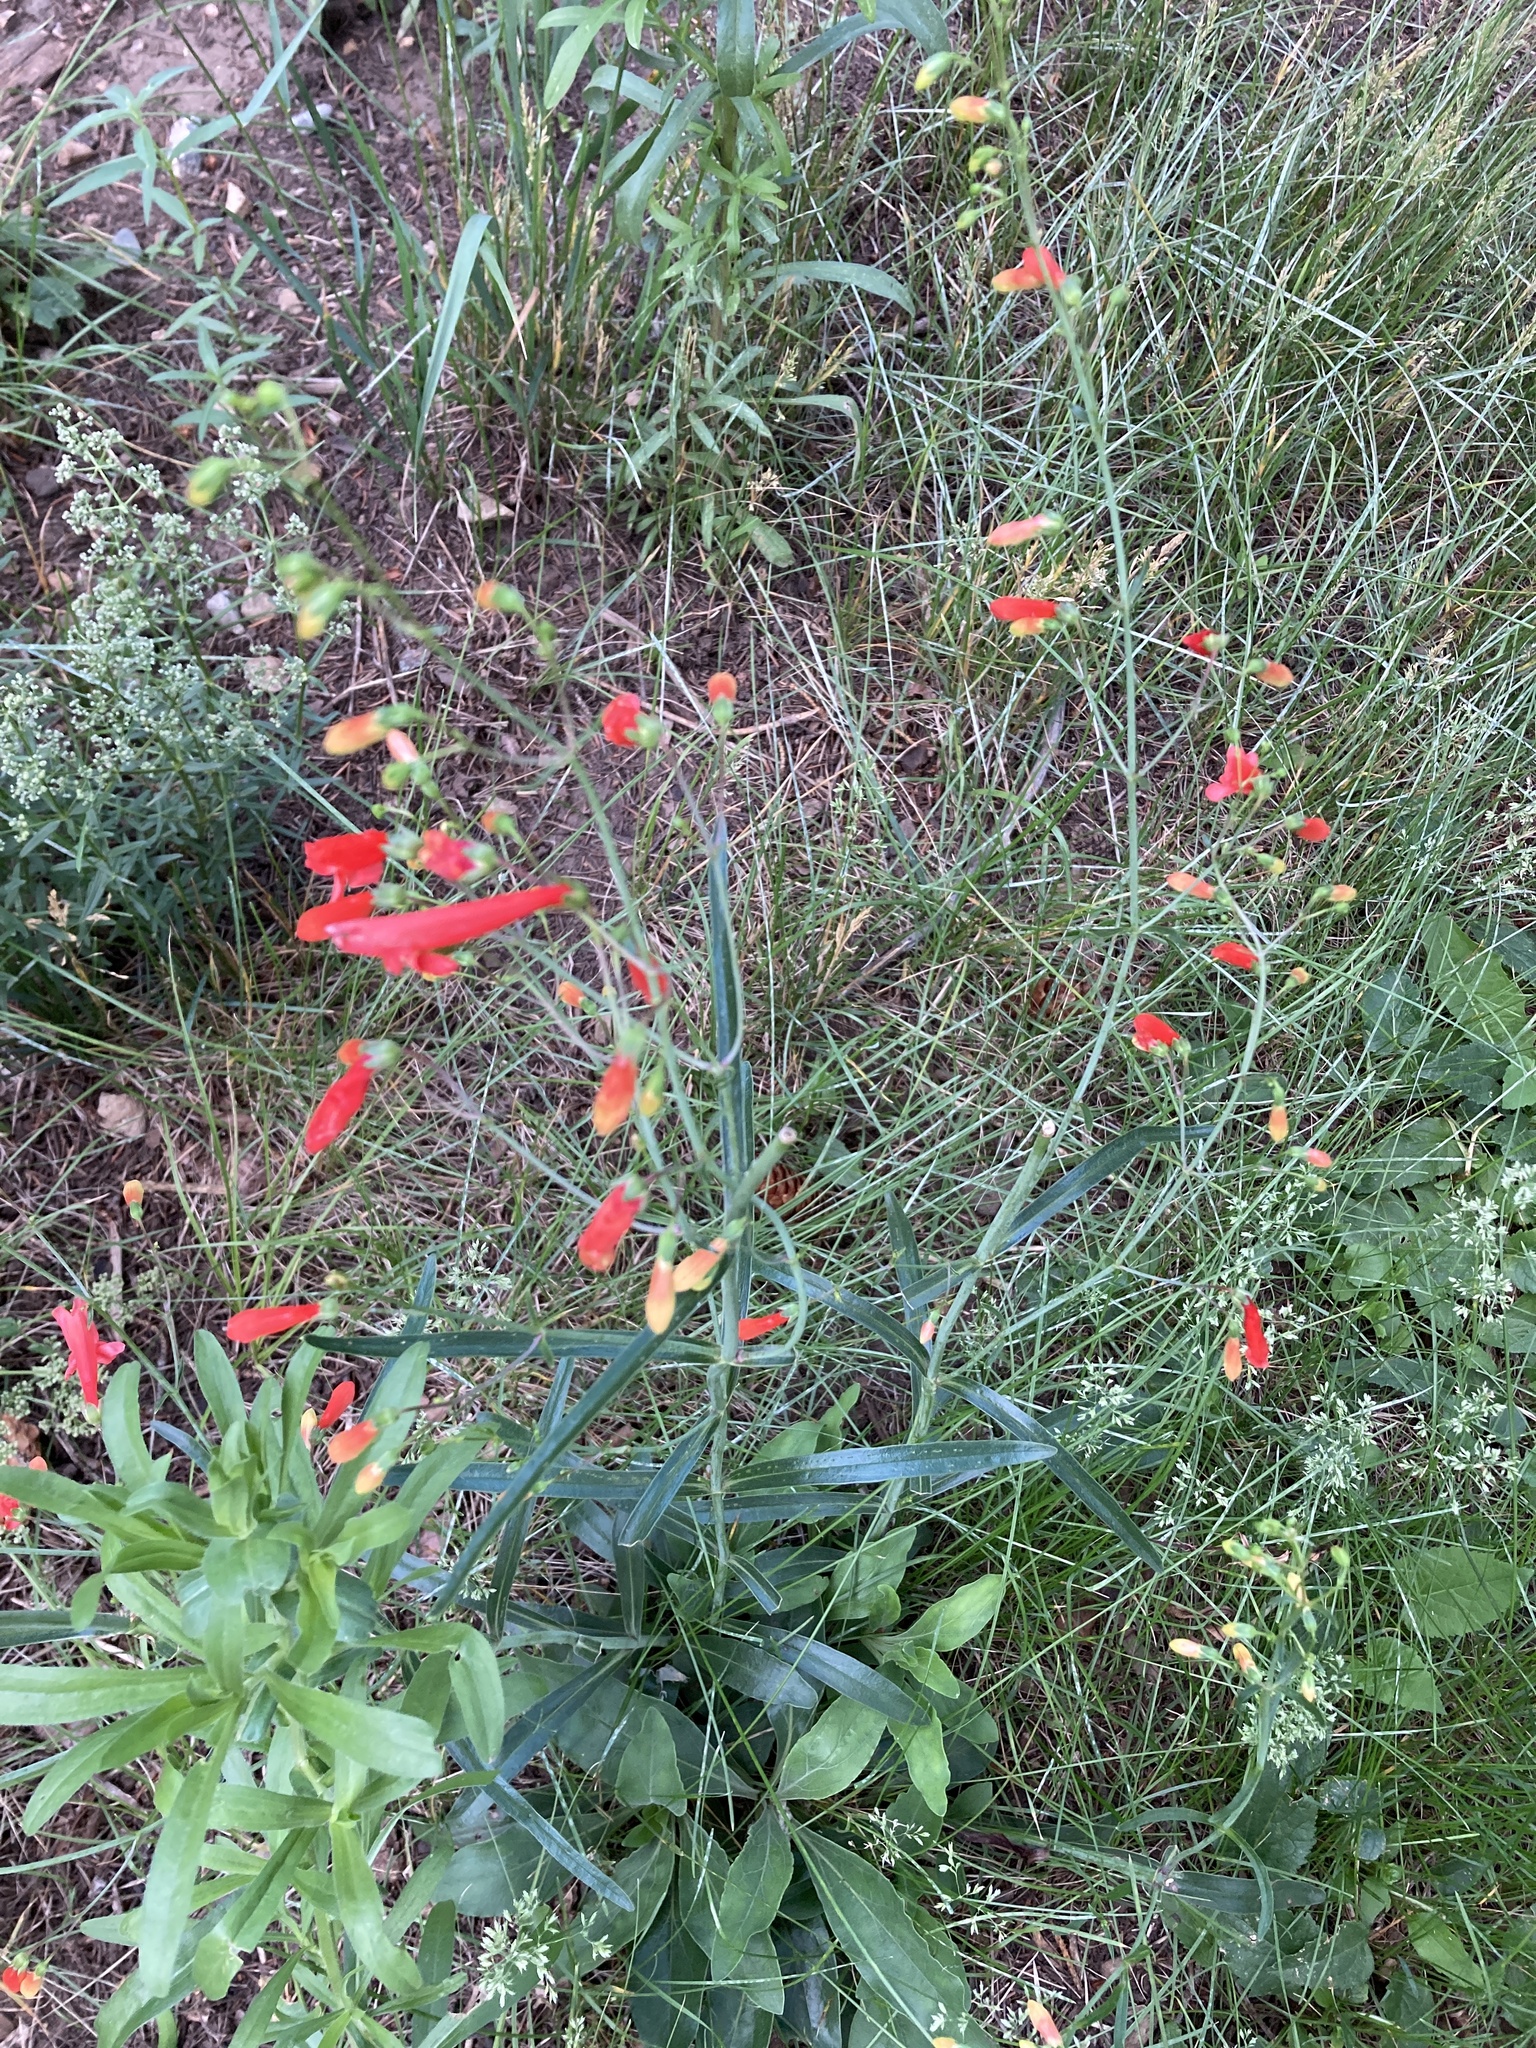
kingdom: Plantae
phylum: Tracheophyta
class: Magnoliopsida
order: Lamiales
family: Plantaginaceae
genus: Penstemon
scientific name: Penstemon barbatus
